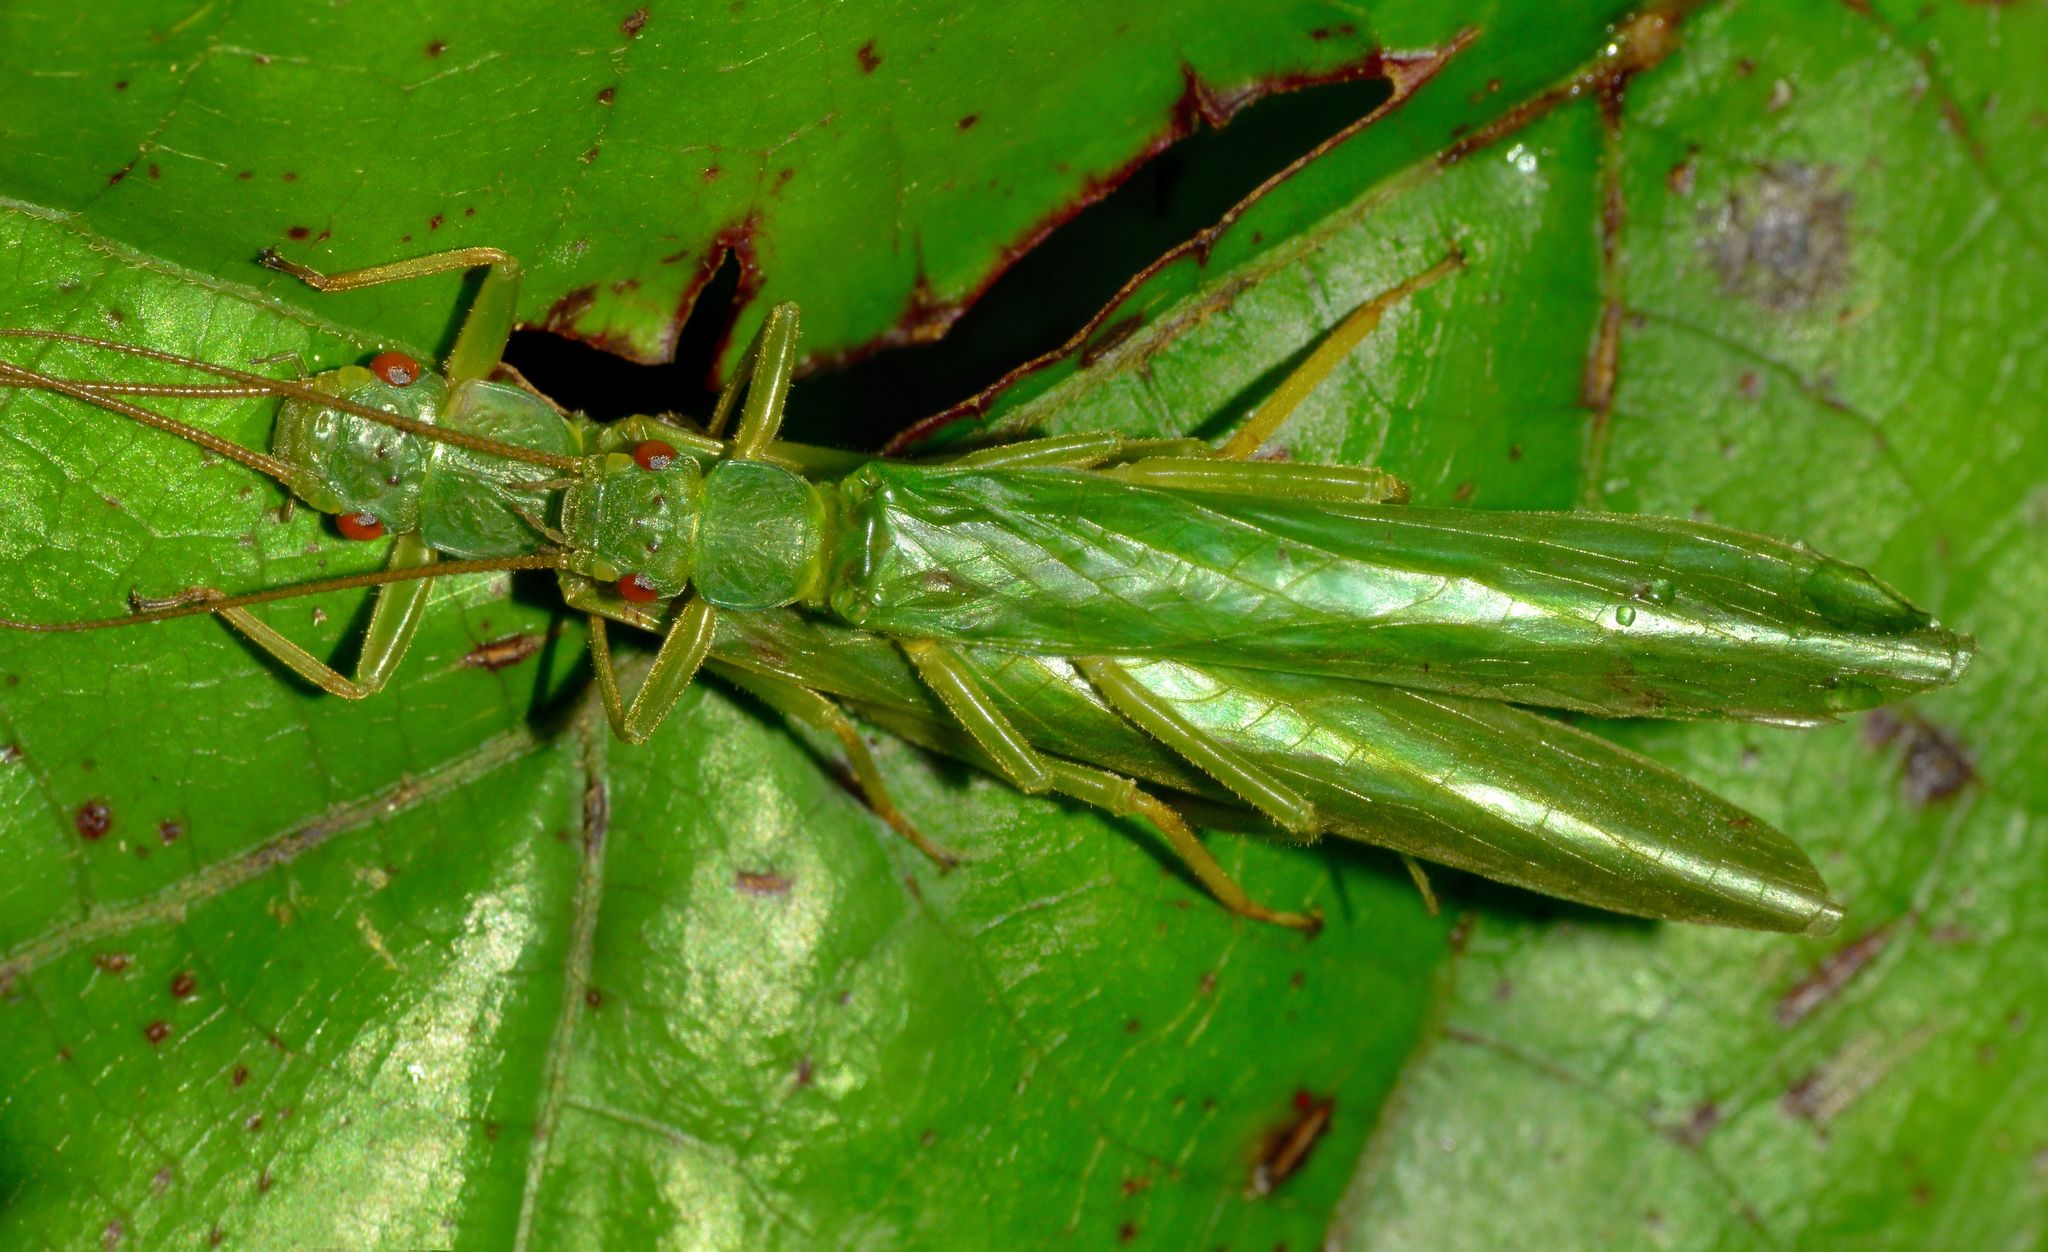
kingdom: Animalia
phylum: Arthropoda
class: Insecta
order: Plecoptera
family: Eustheniidae
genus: Stenoperla
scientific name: Stenoperla prasina
